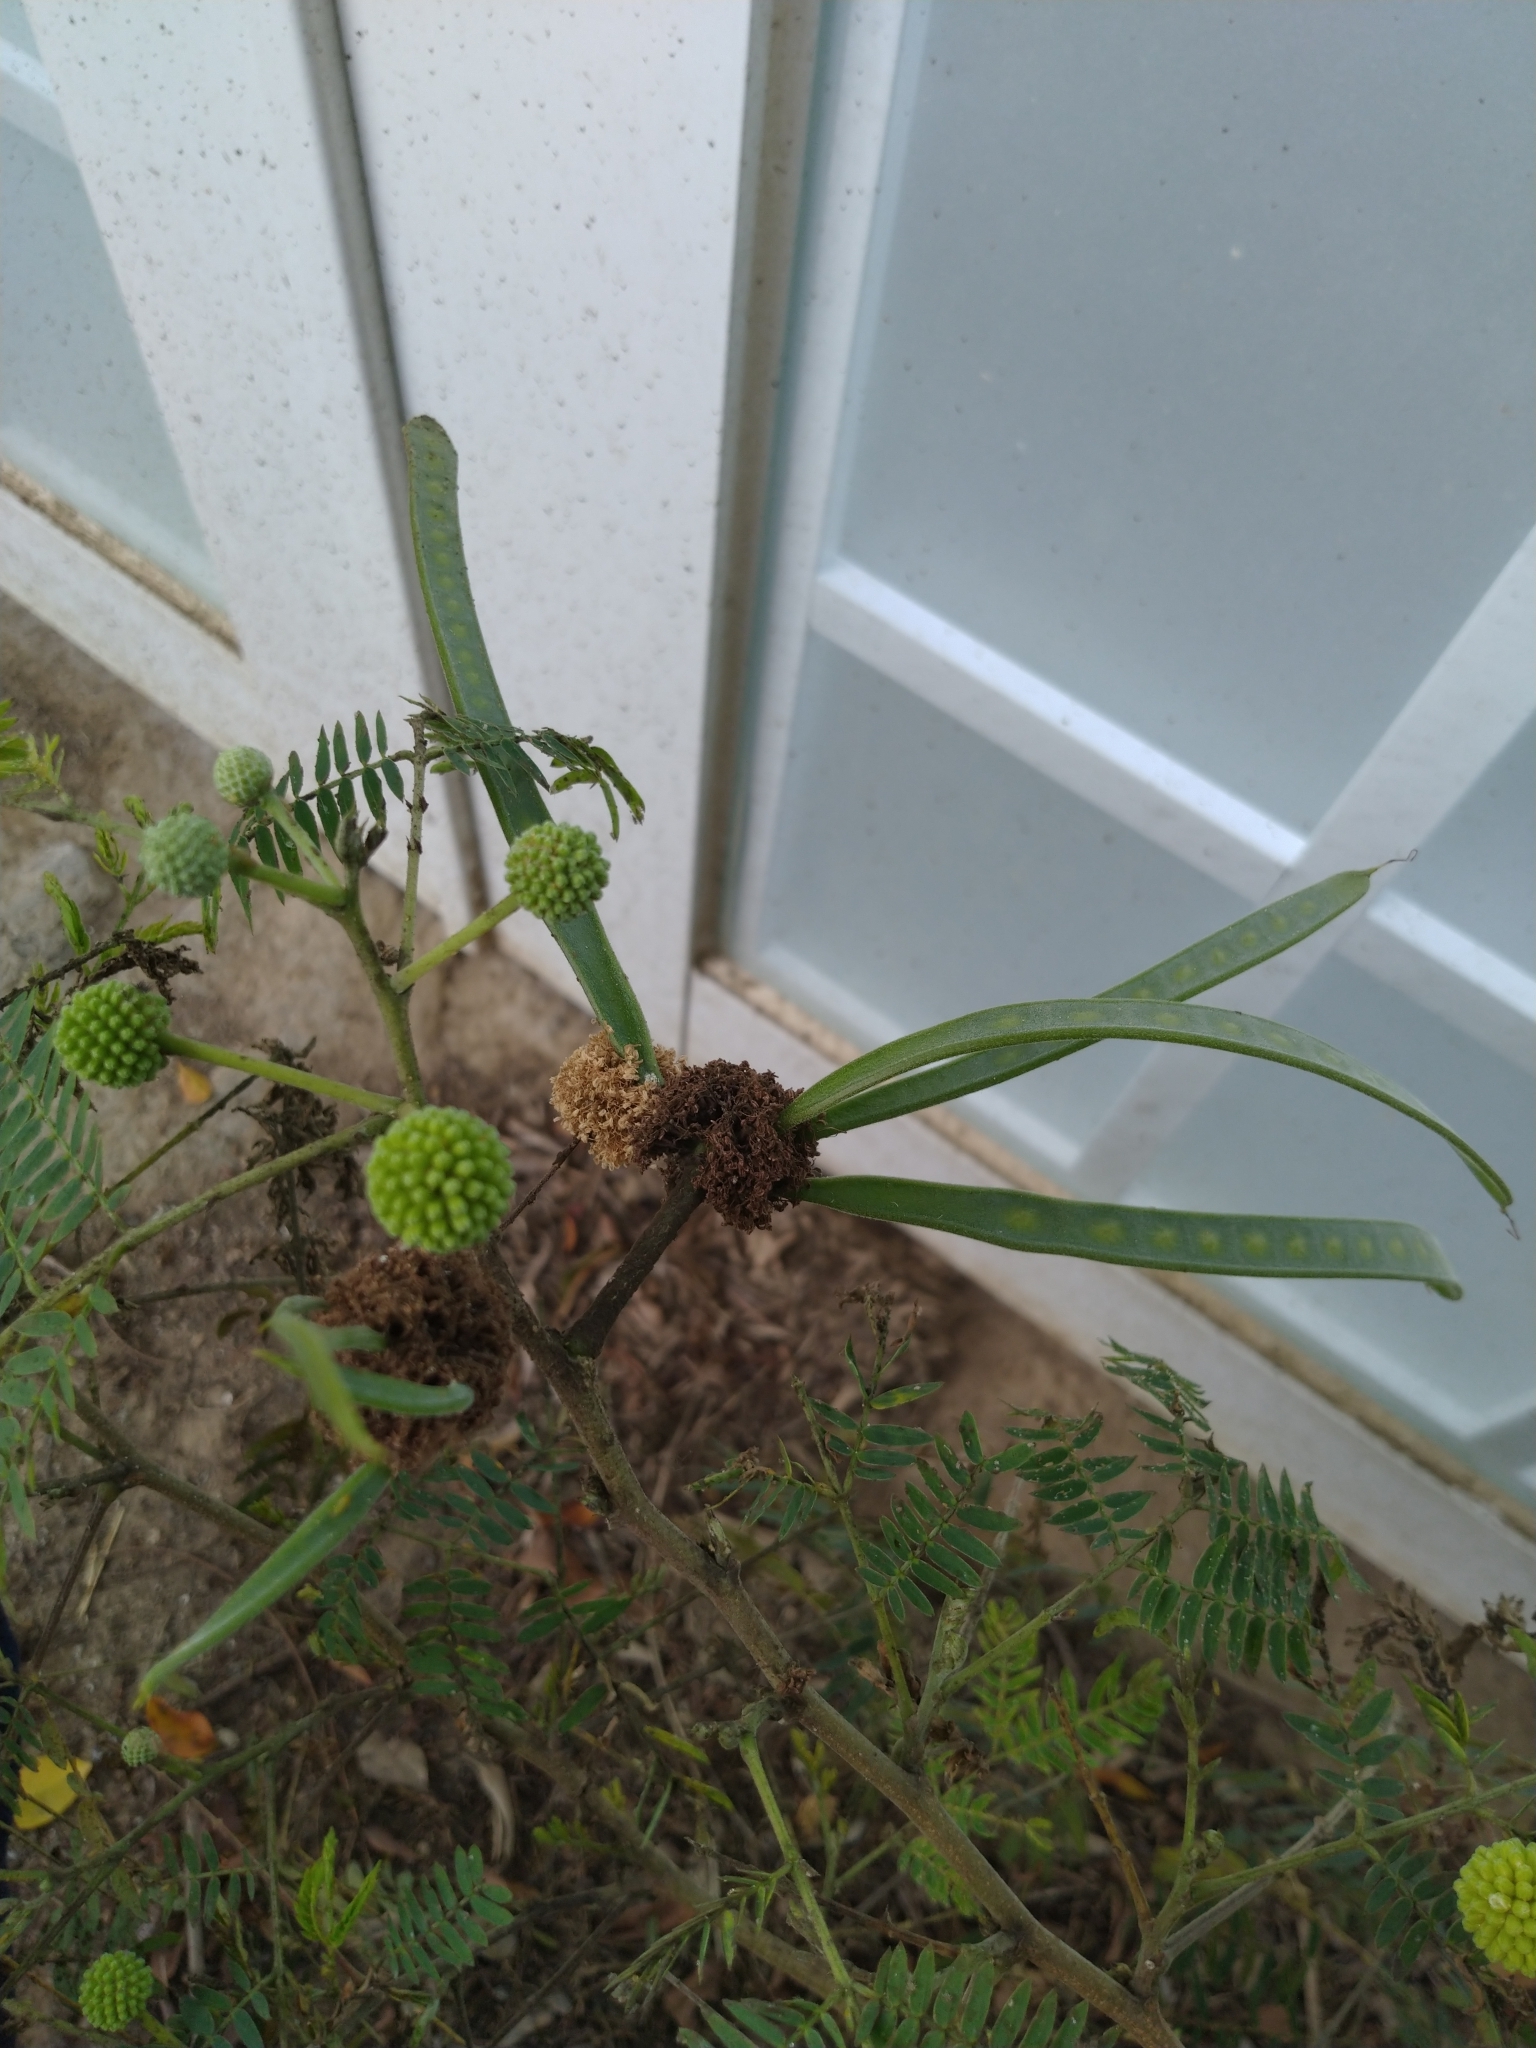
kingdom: Plantae
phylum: Tracheophyta
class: Magnoliopsida
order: Fabales
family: Fabaceae
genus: Leucaena
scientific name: Leucaena leucocephala
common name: White leadtree
